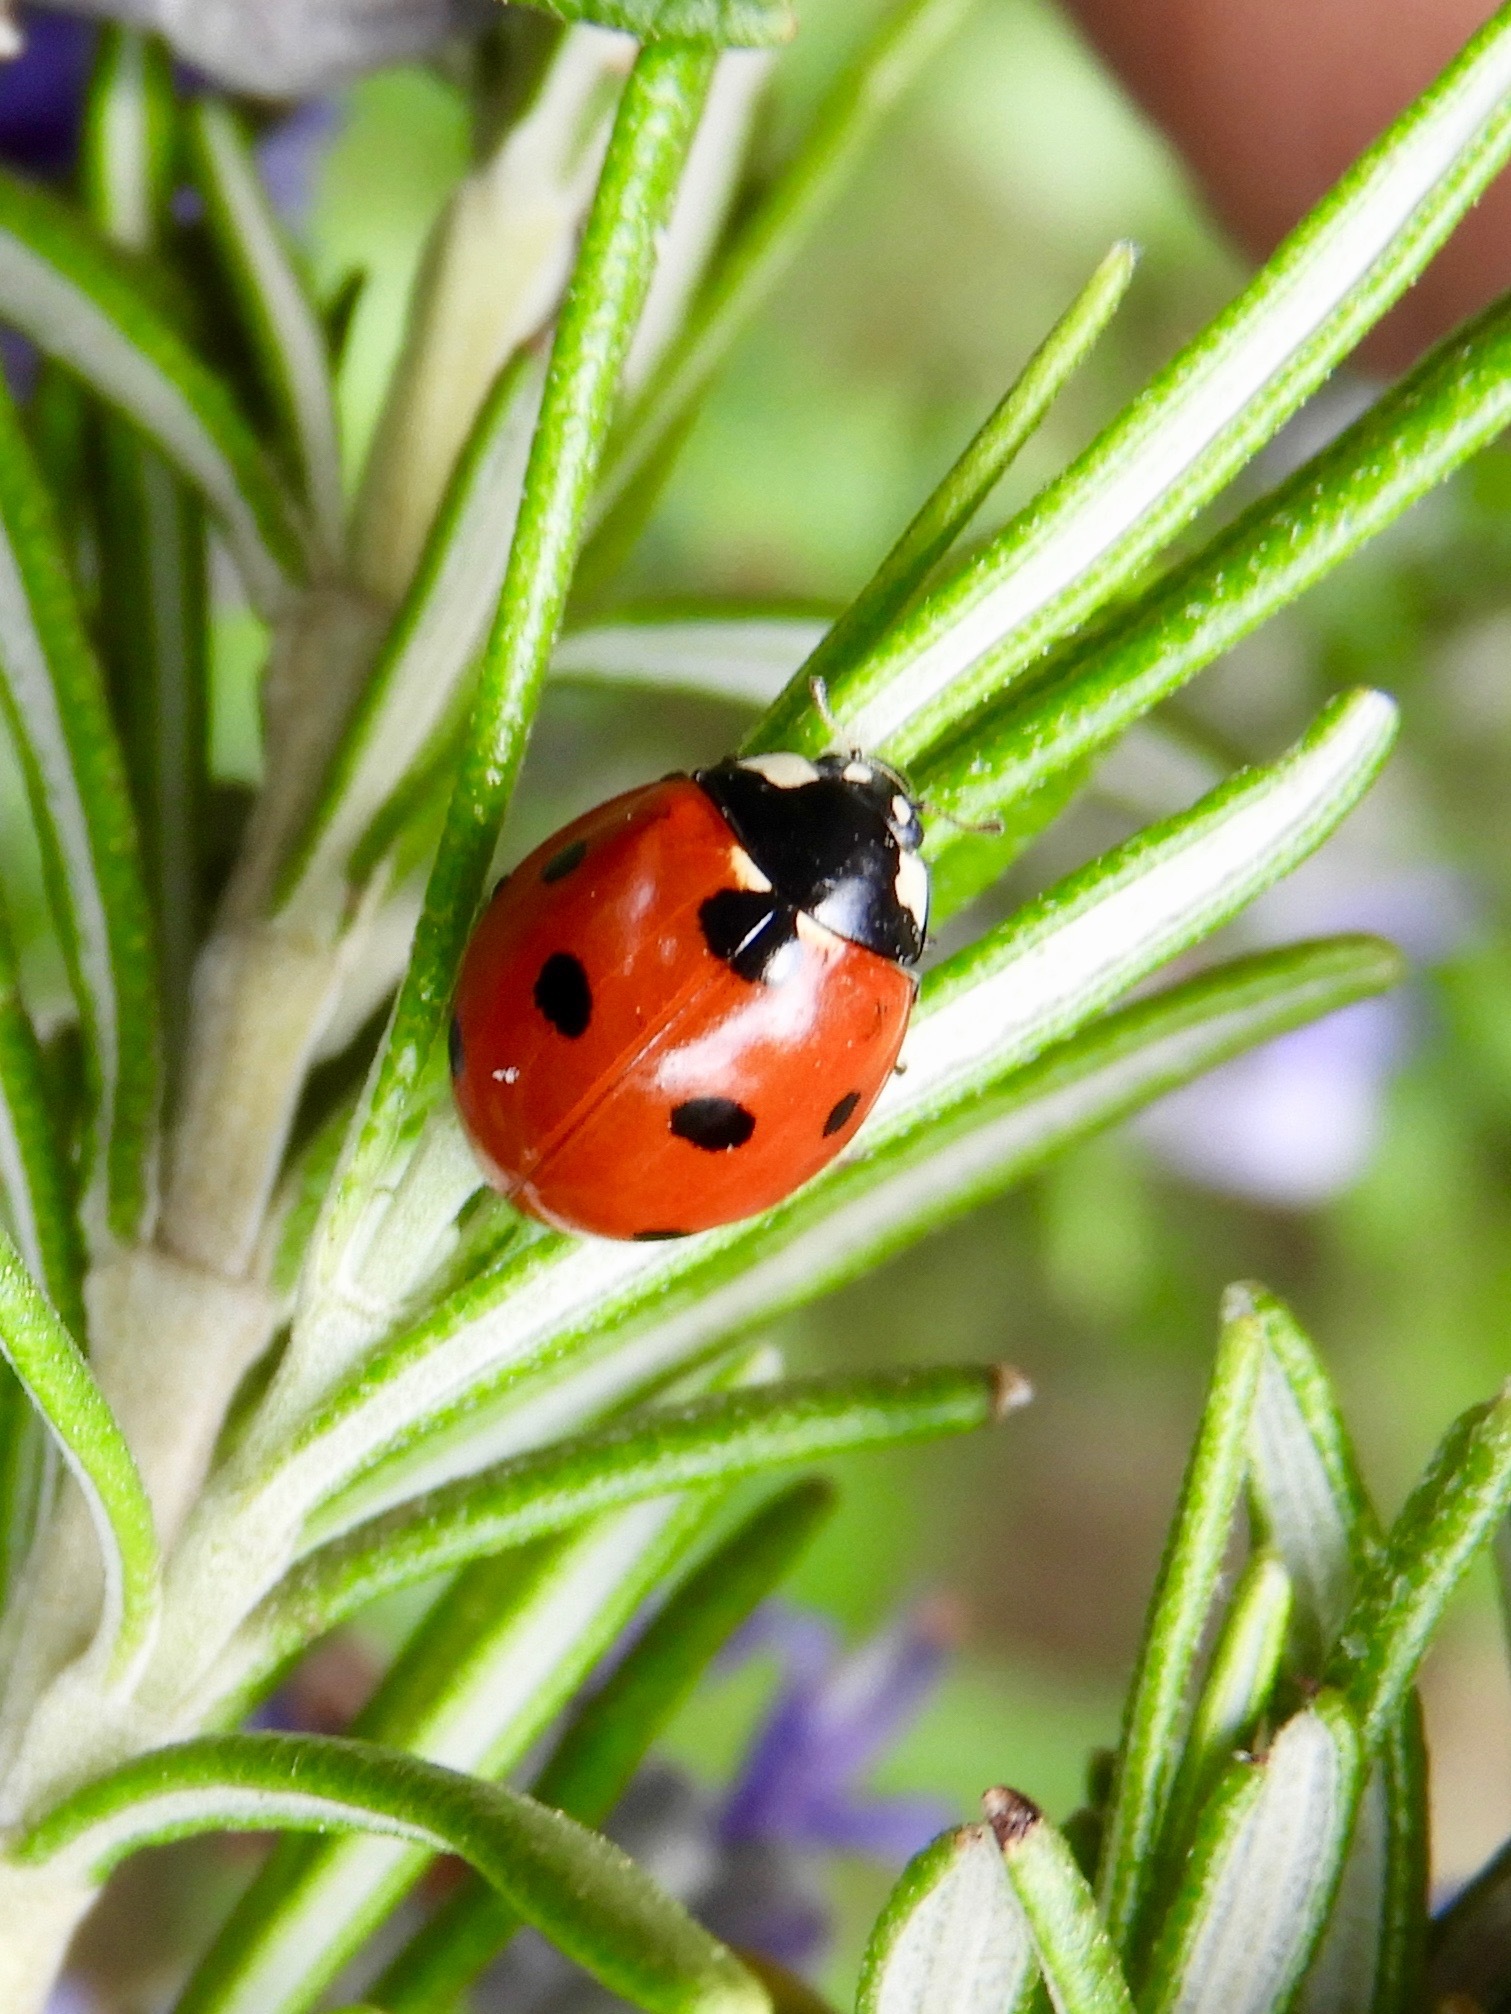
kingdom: Animalia
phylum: Arthropoda
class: Insecta
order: Coleoptera
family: Coccinellidae
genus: Coccinella
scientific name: Coccinella septempunctata
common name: Sevenspotted lady beetle
